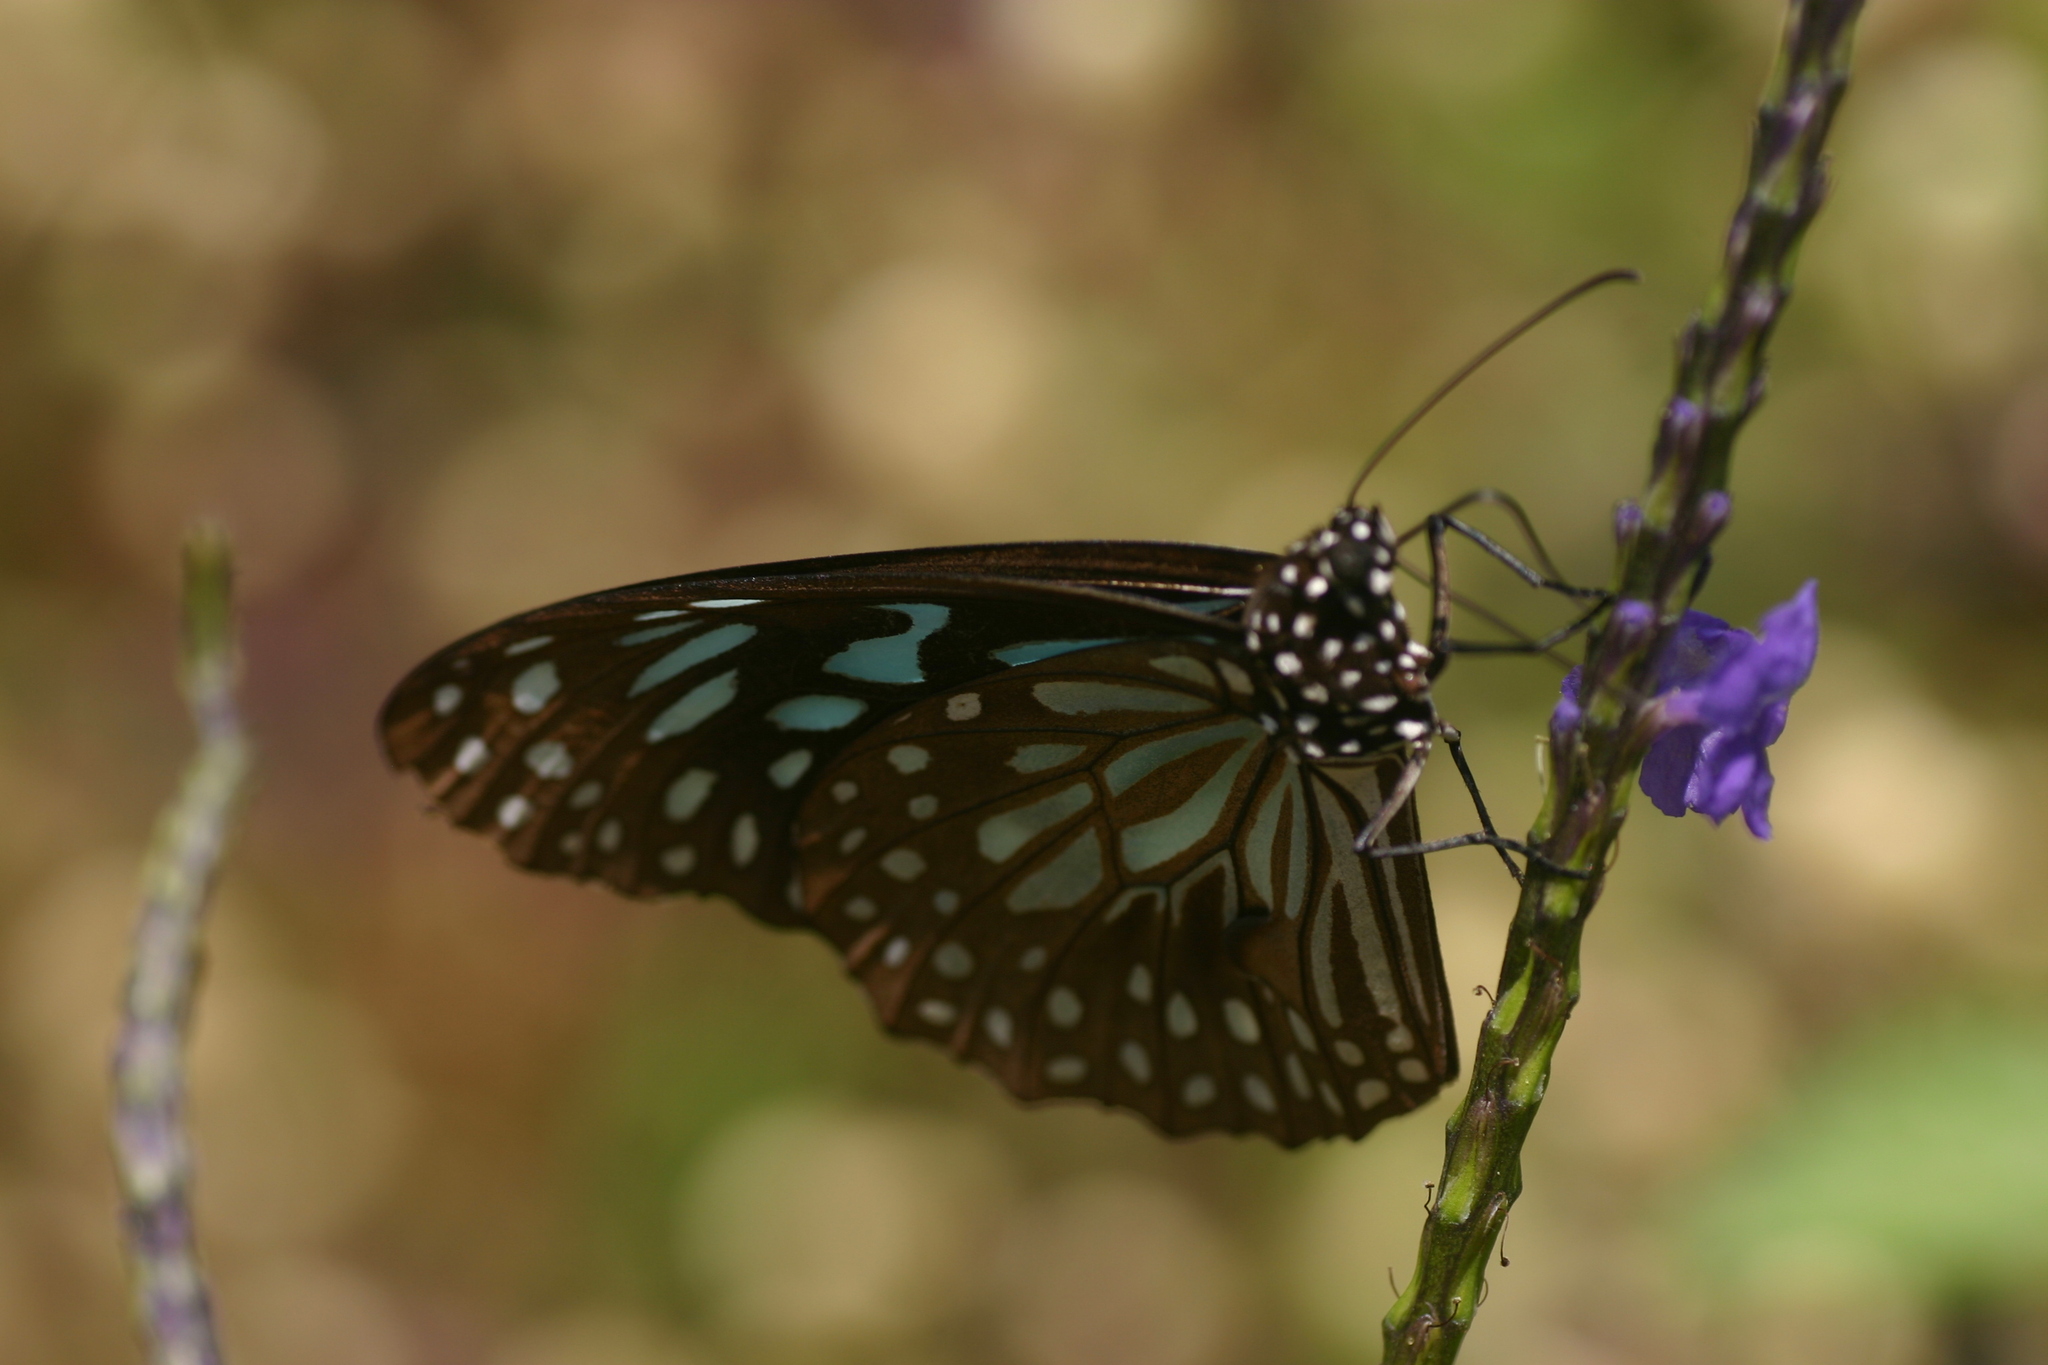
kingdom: Animalia
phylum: Arthropoda
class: Insecta
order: Lepidoptera
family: Nymphalidae
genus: Tirumala
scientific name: Tirumala septentrionis
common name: Dark blue tiger butterfly
